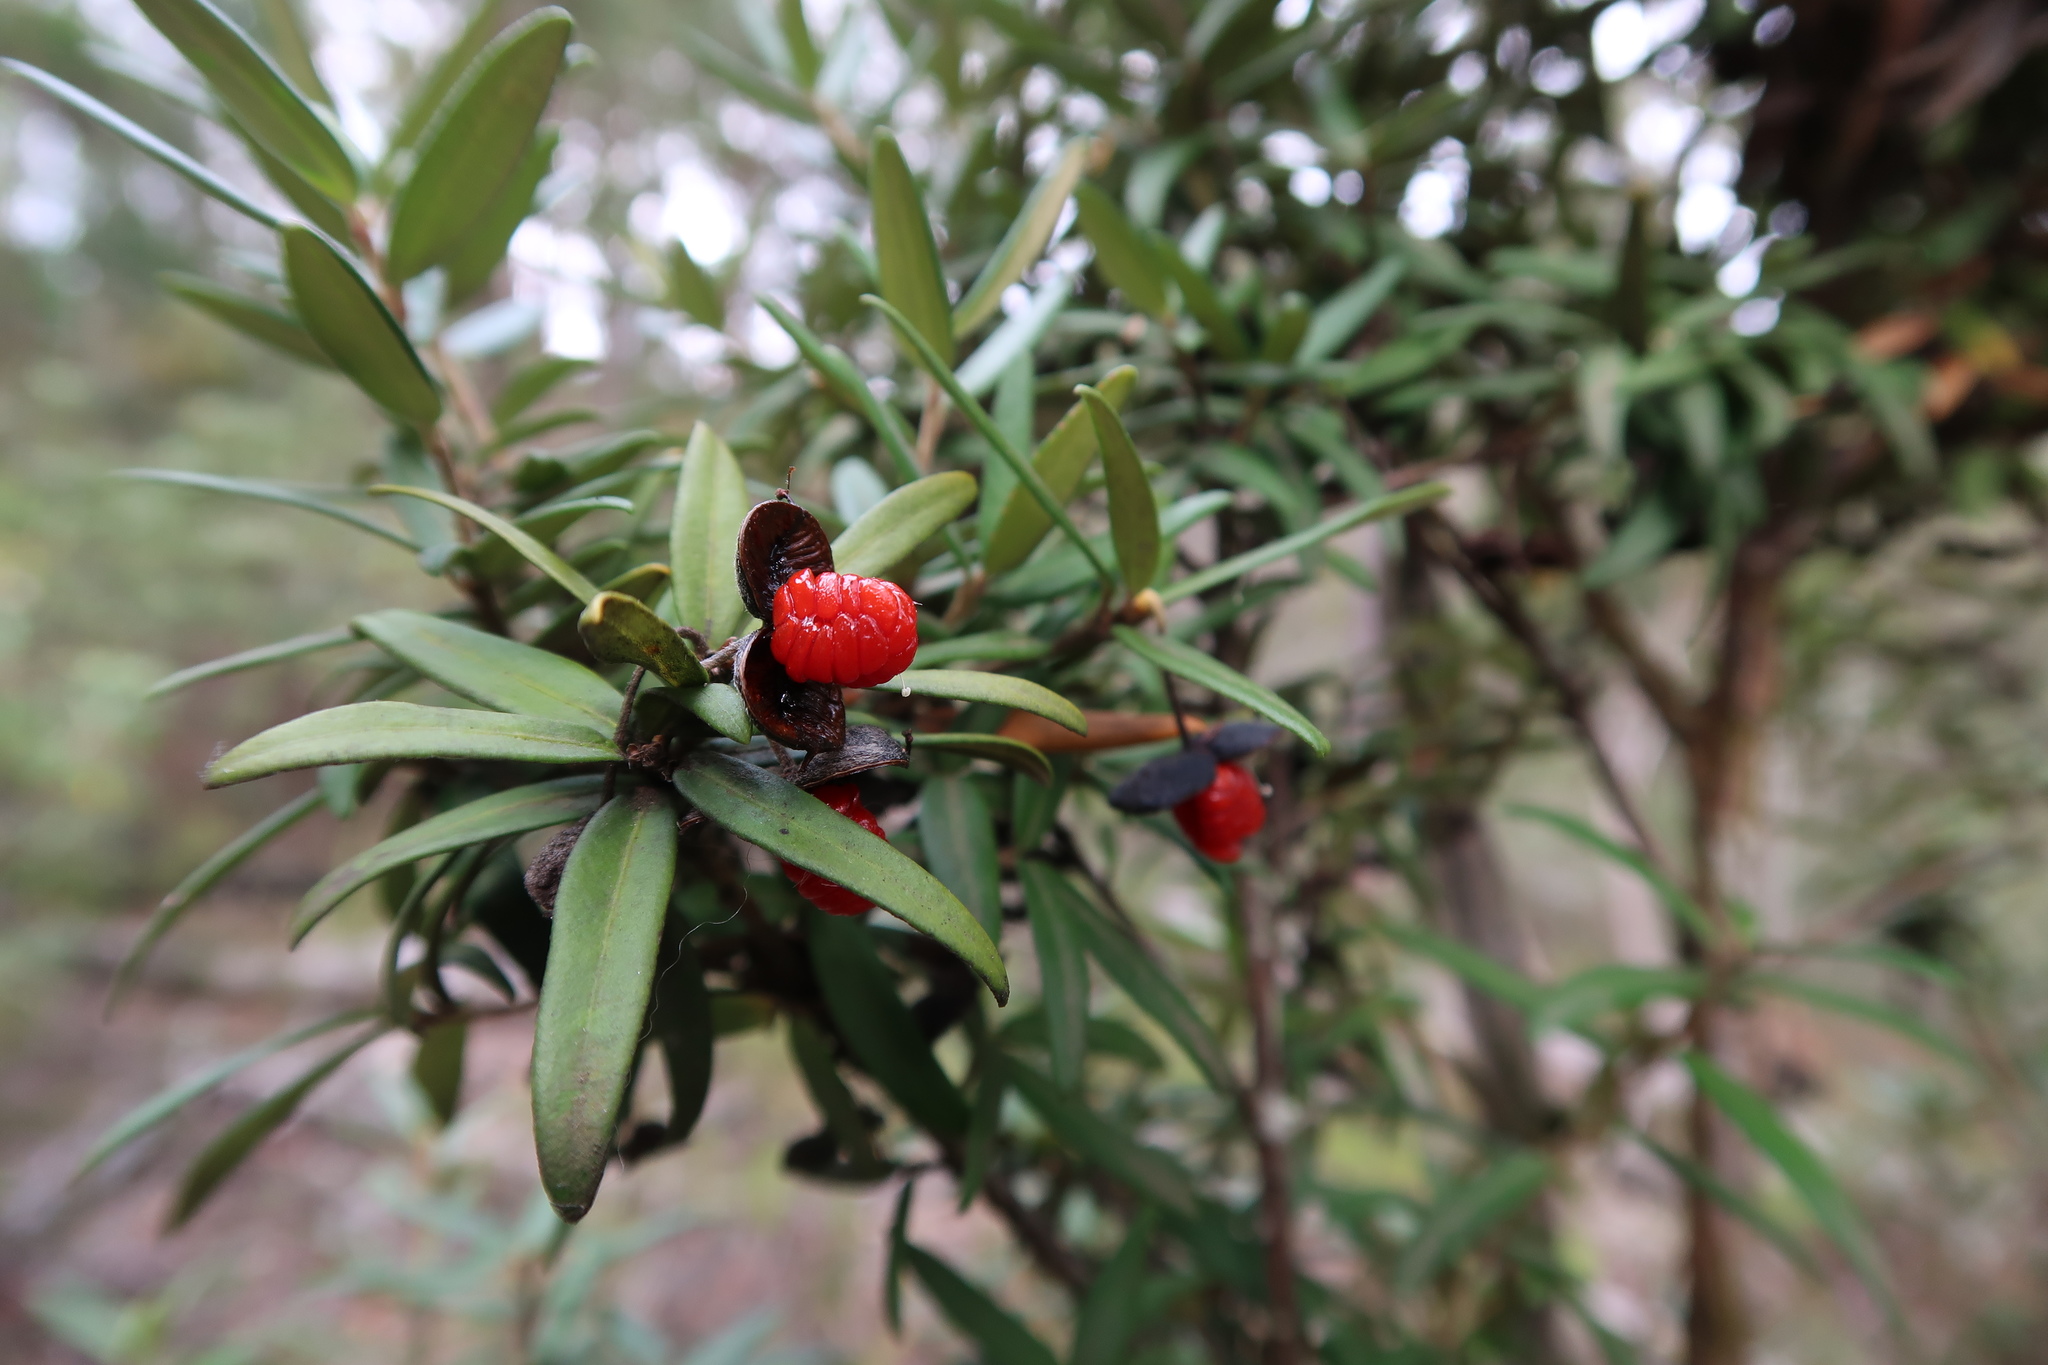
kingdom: Plantae
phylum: Tracheophyta
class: Magnoliopsida
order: Apiales
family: Pittosporaceae
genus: Pittosporum
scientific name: Pittosporum bicolor
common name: Tallowwood
